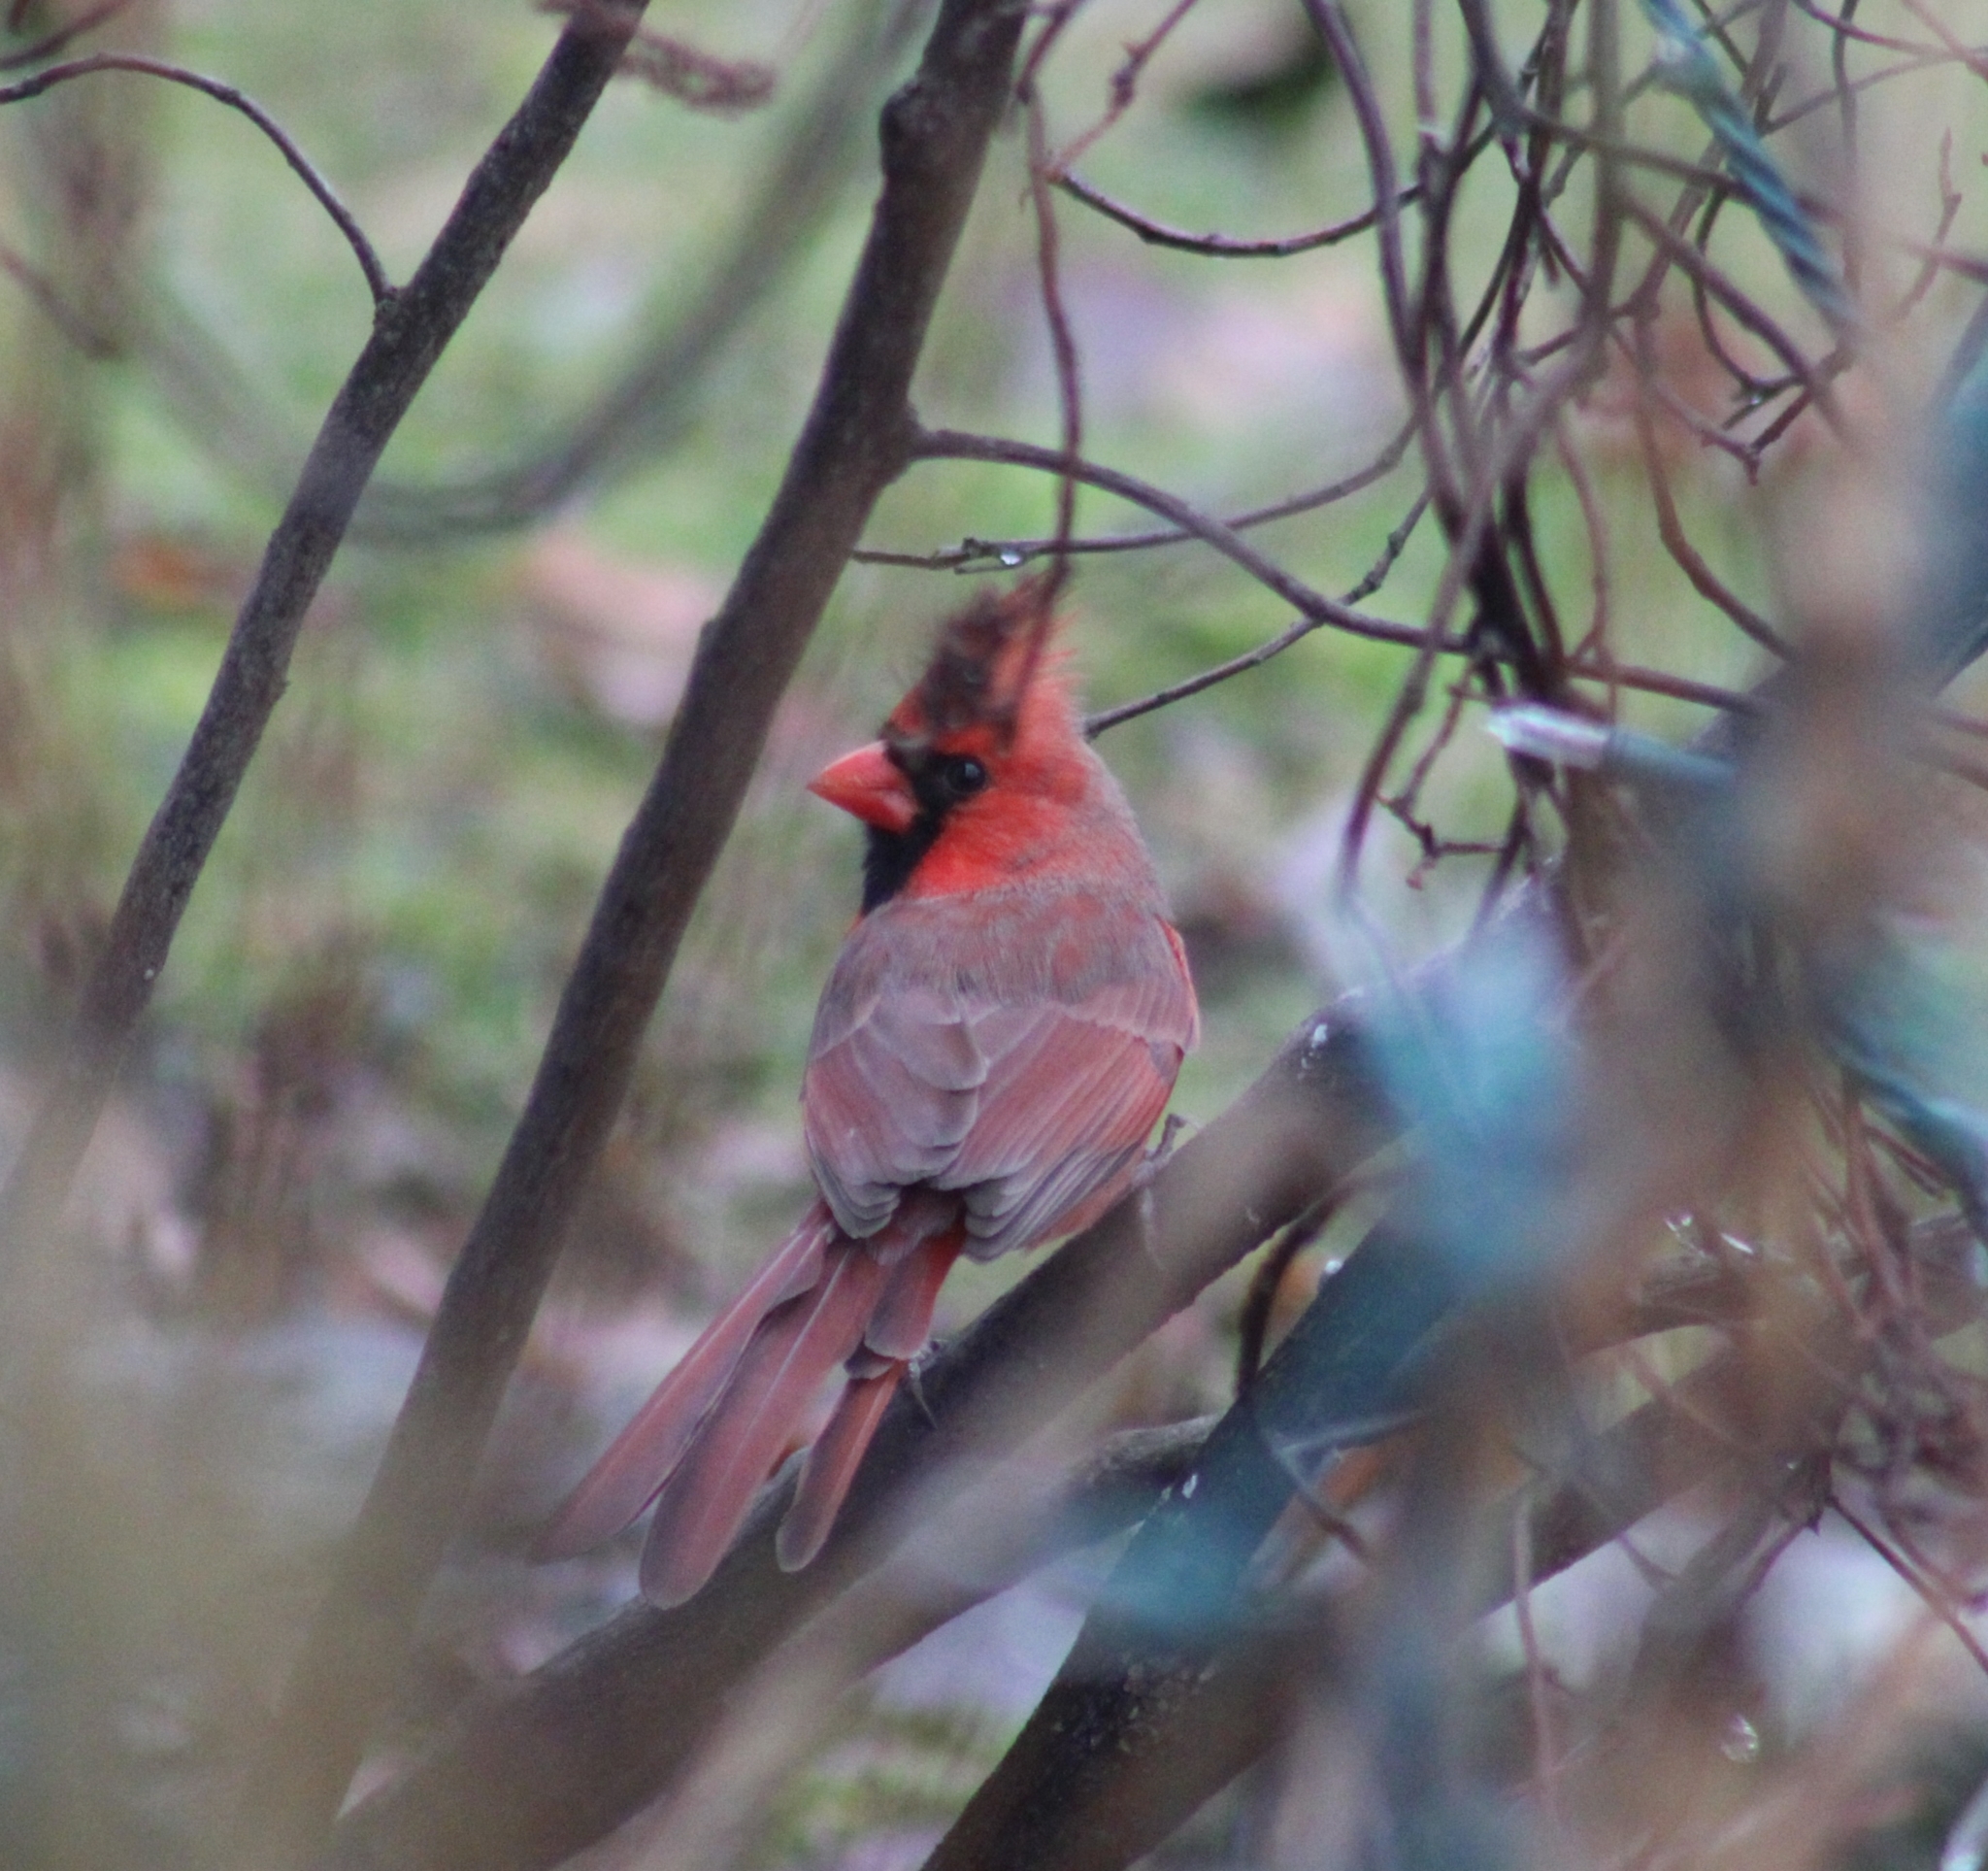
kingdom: Animalia
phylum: Chordata
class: Aves
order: Passeriformes
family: Cardinalidae
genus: Cardinalis
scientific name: Cardinalis cardinalis
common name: Northern cardinal
